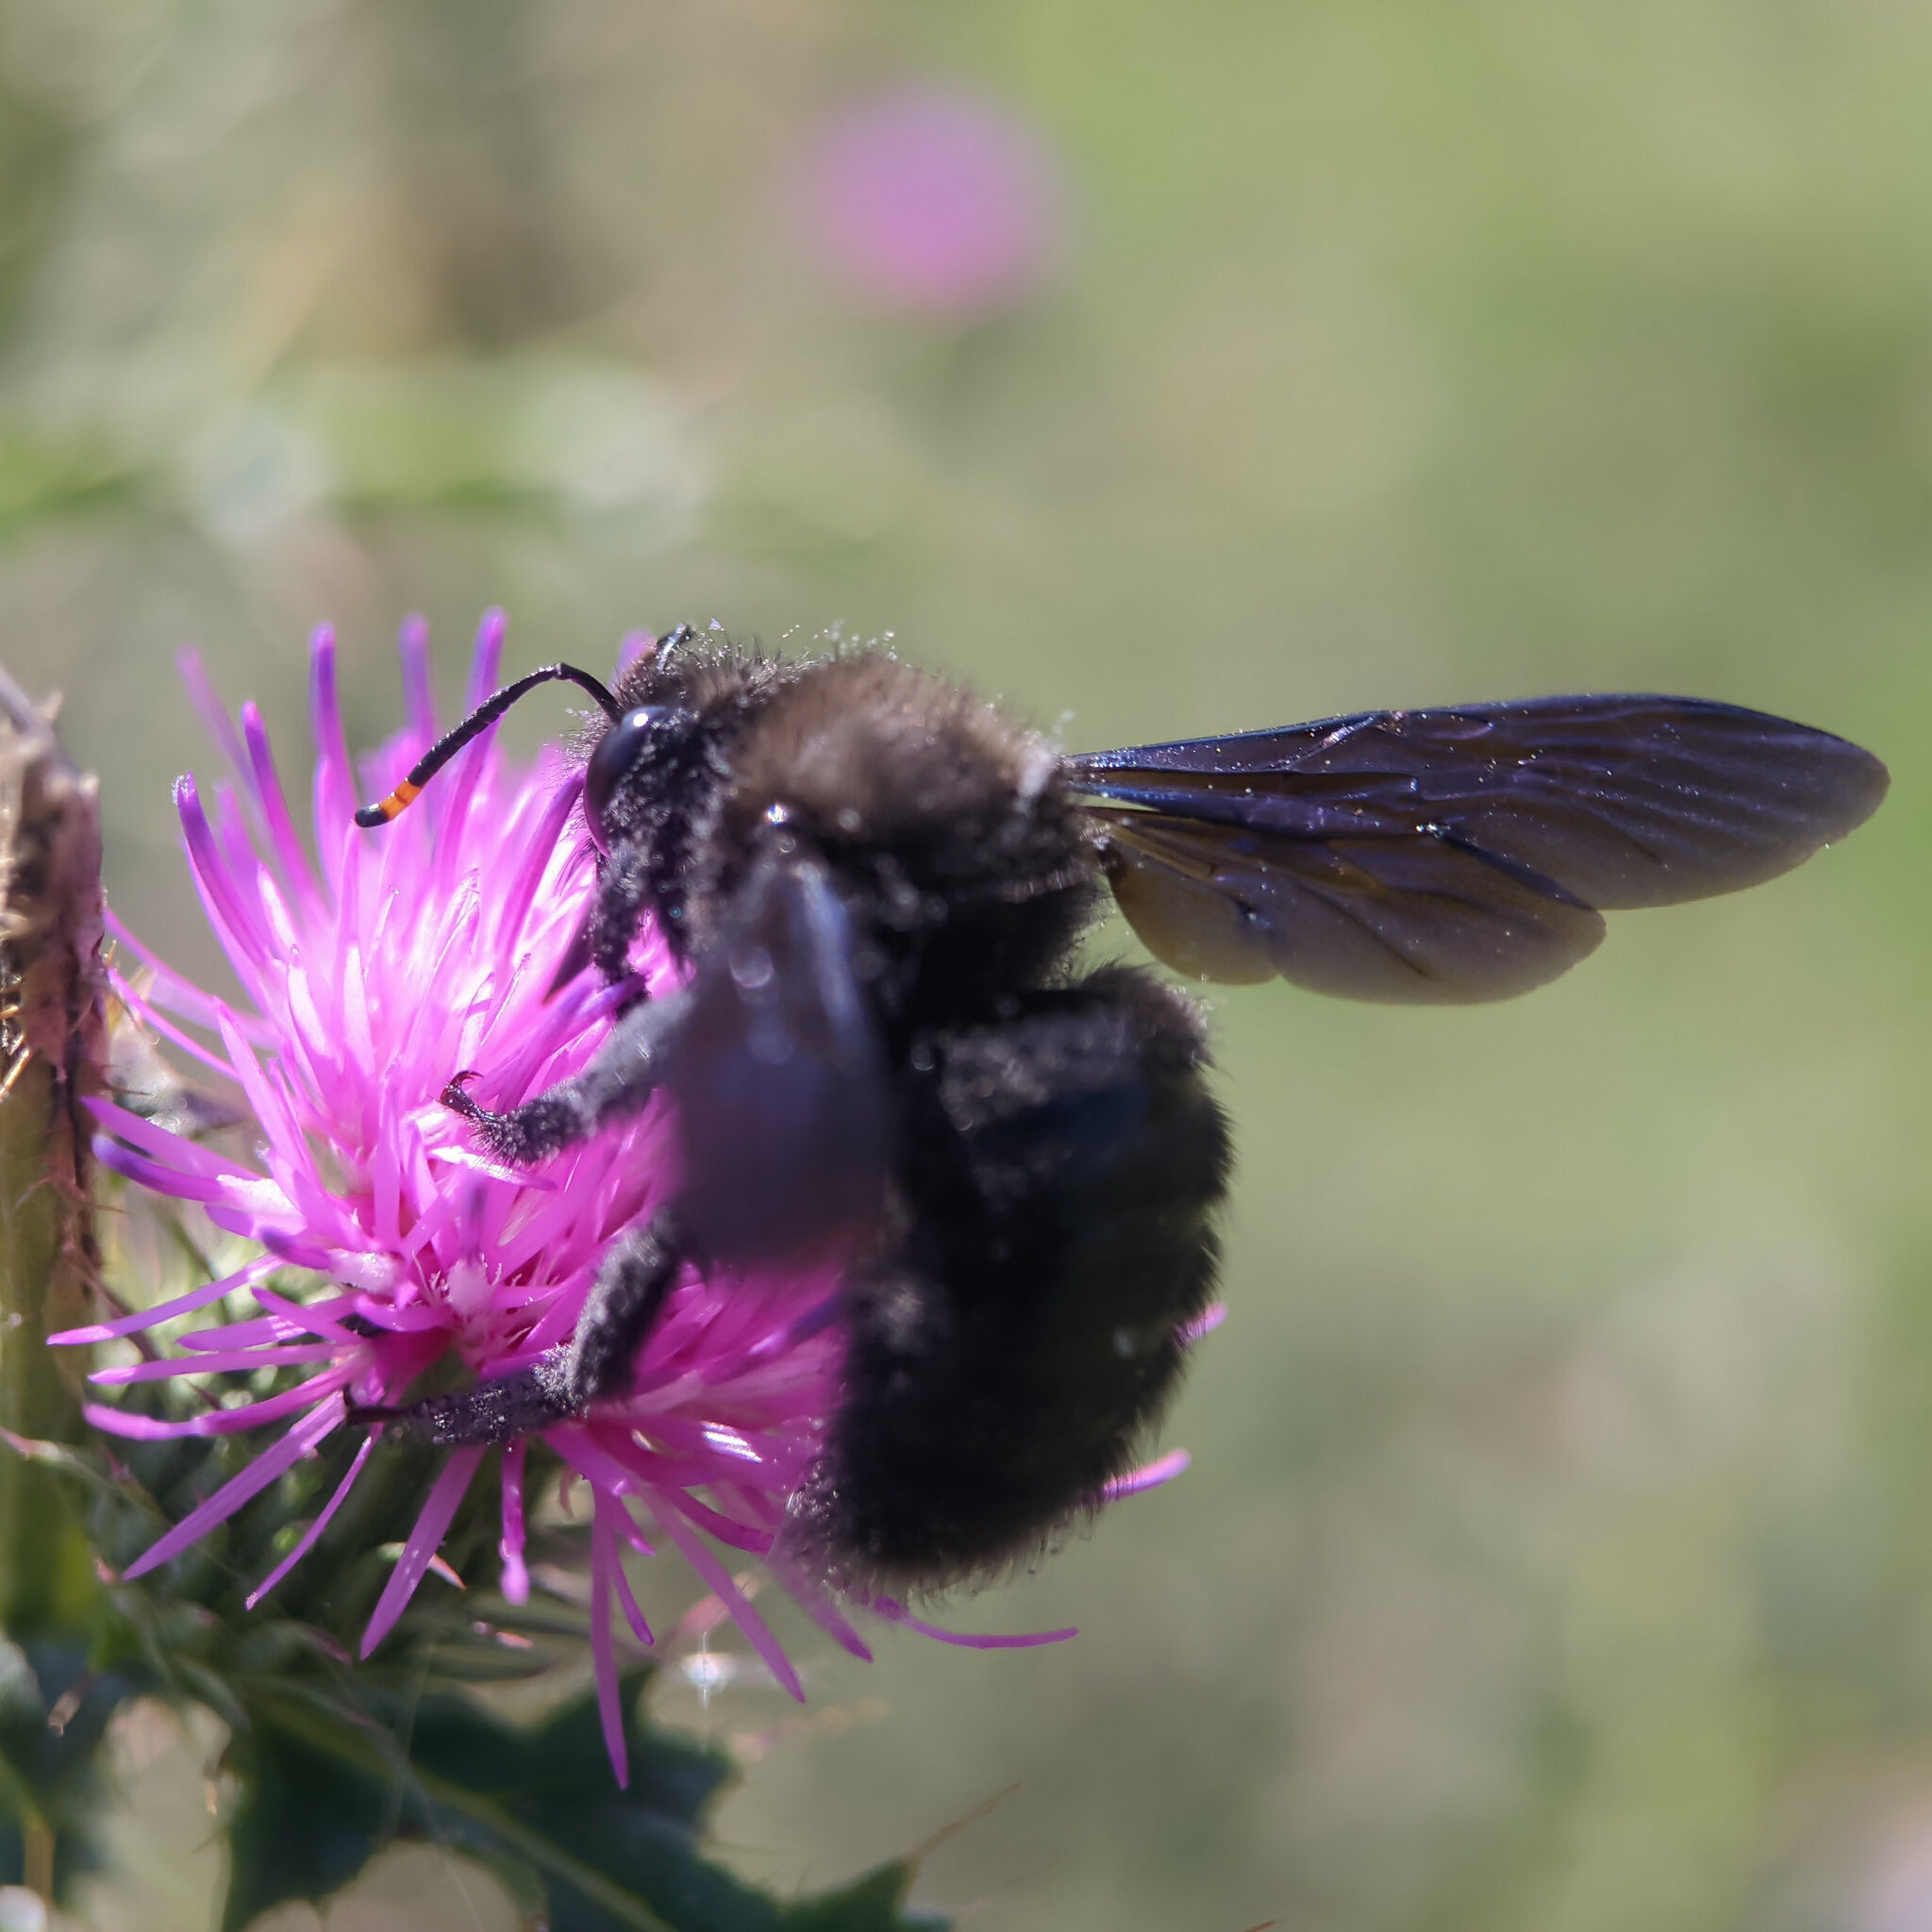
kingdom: Animalia
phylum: Arthropoda
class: Insecta
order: Hymenoptera
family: Apidae
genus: Xylocopa
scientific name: Xylocopa violacea
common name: Violet carpenter bee
